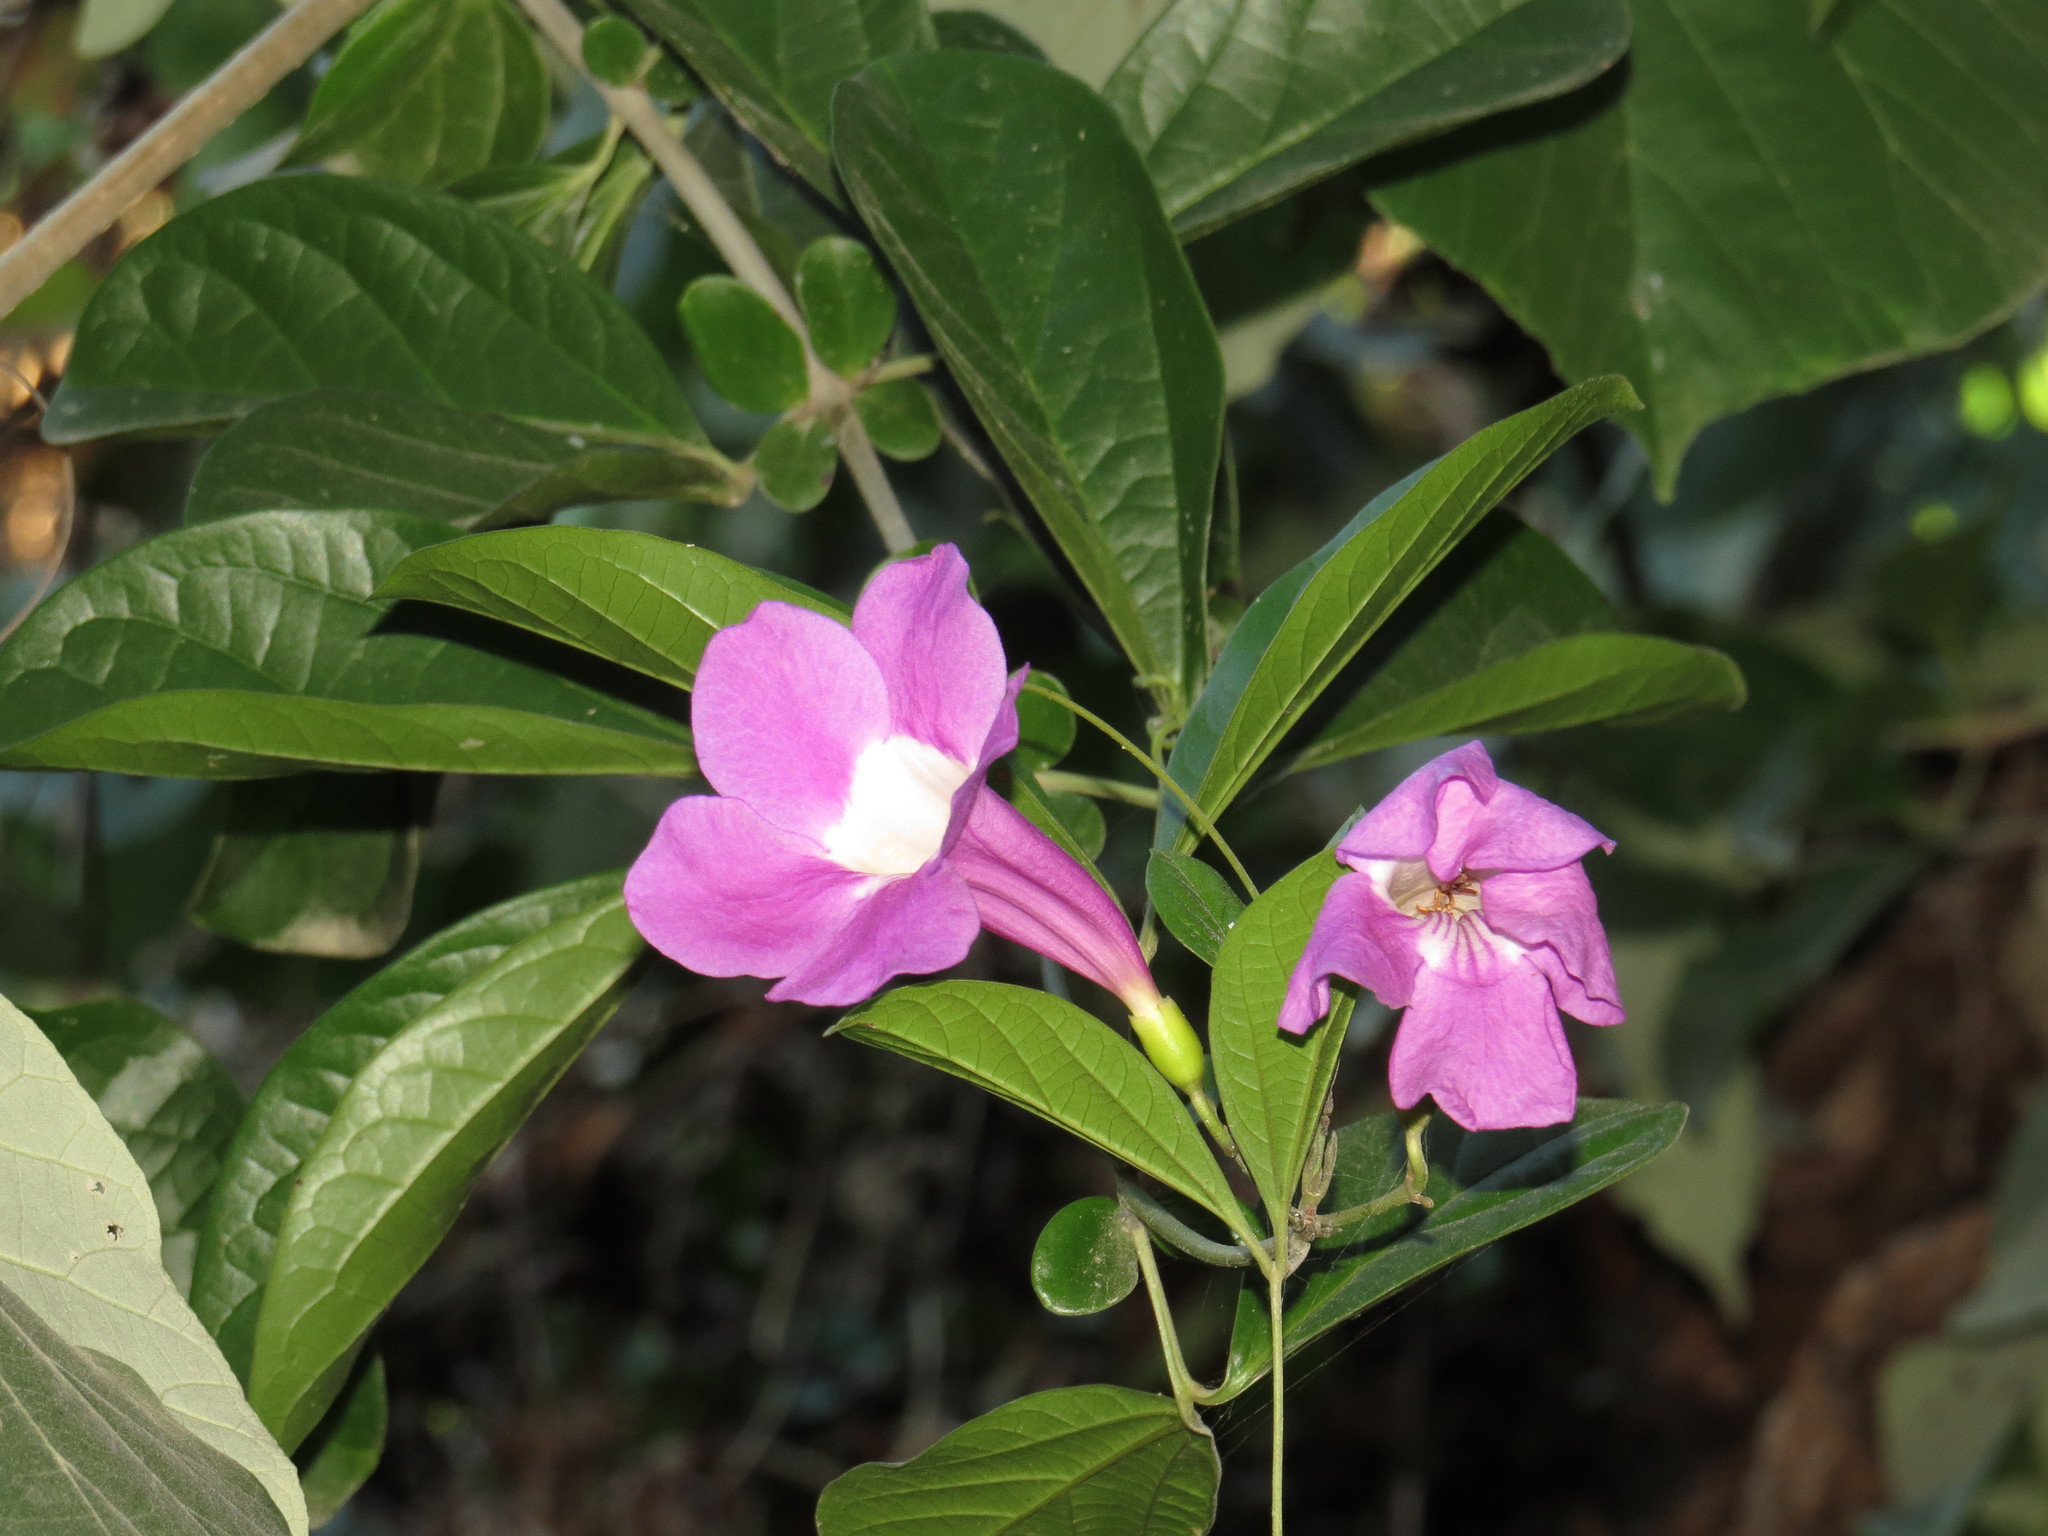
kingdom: Plantae
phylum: Tracheophyta
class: Magnoliopsida
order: Lamiales
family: Bignoniaceae
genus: Bignonia
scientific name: Bignonia magnifica
